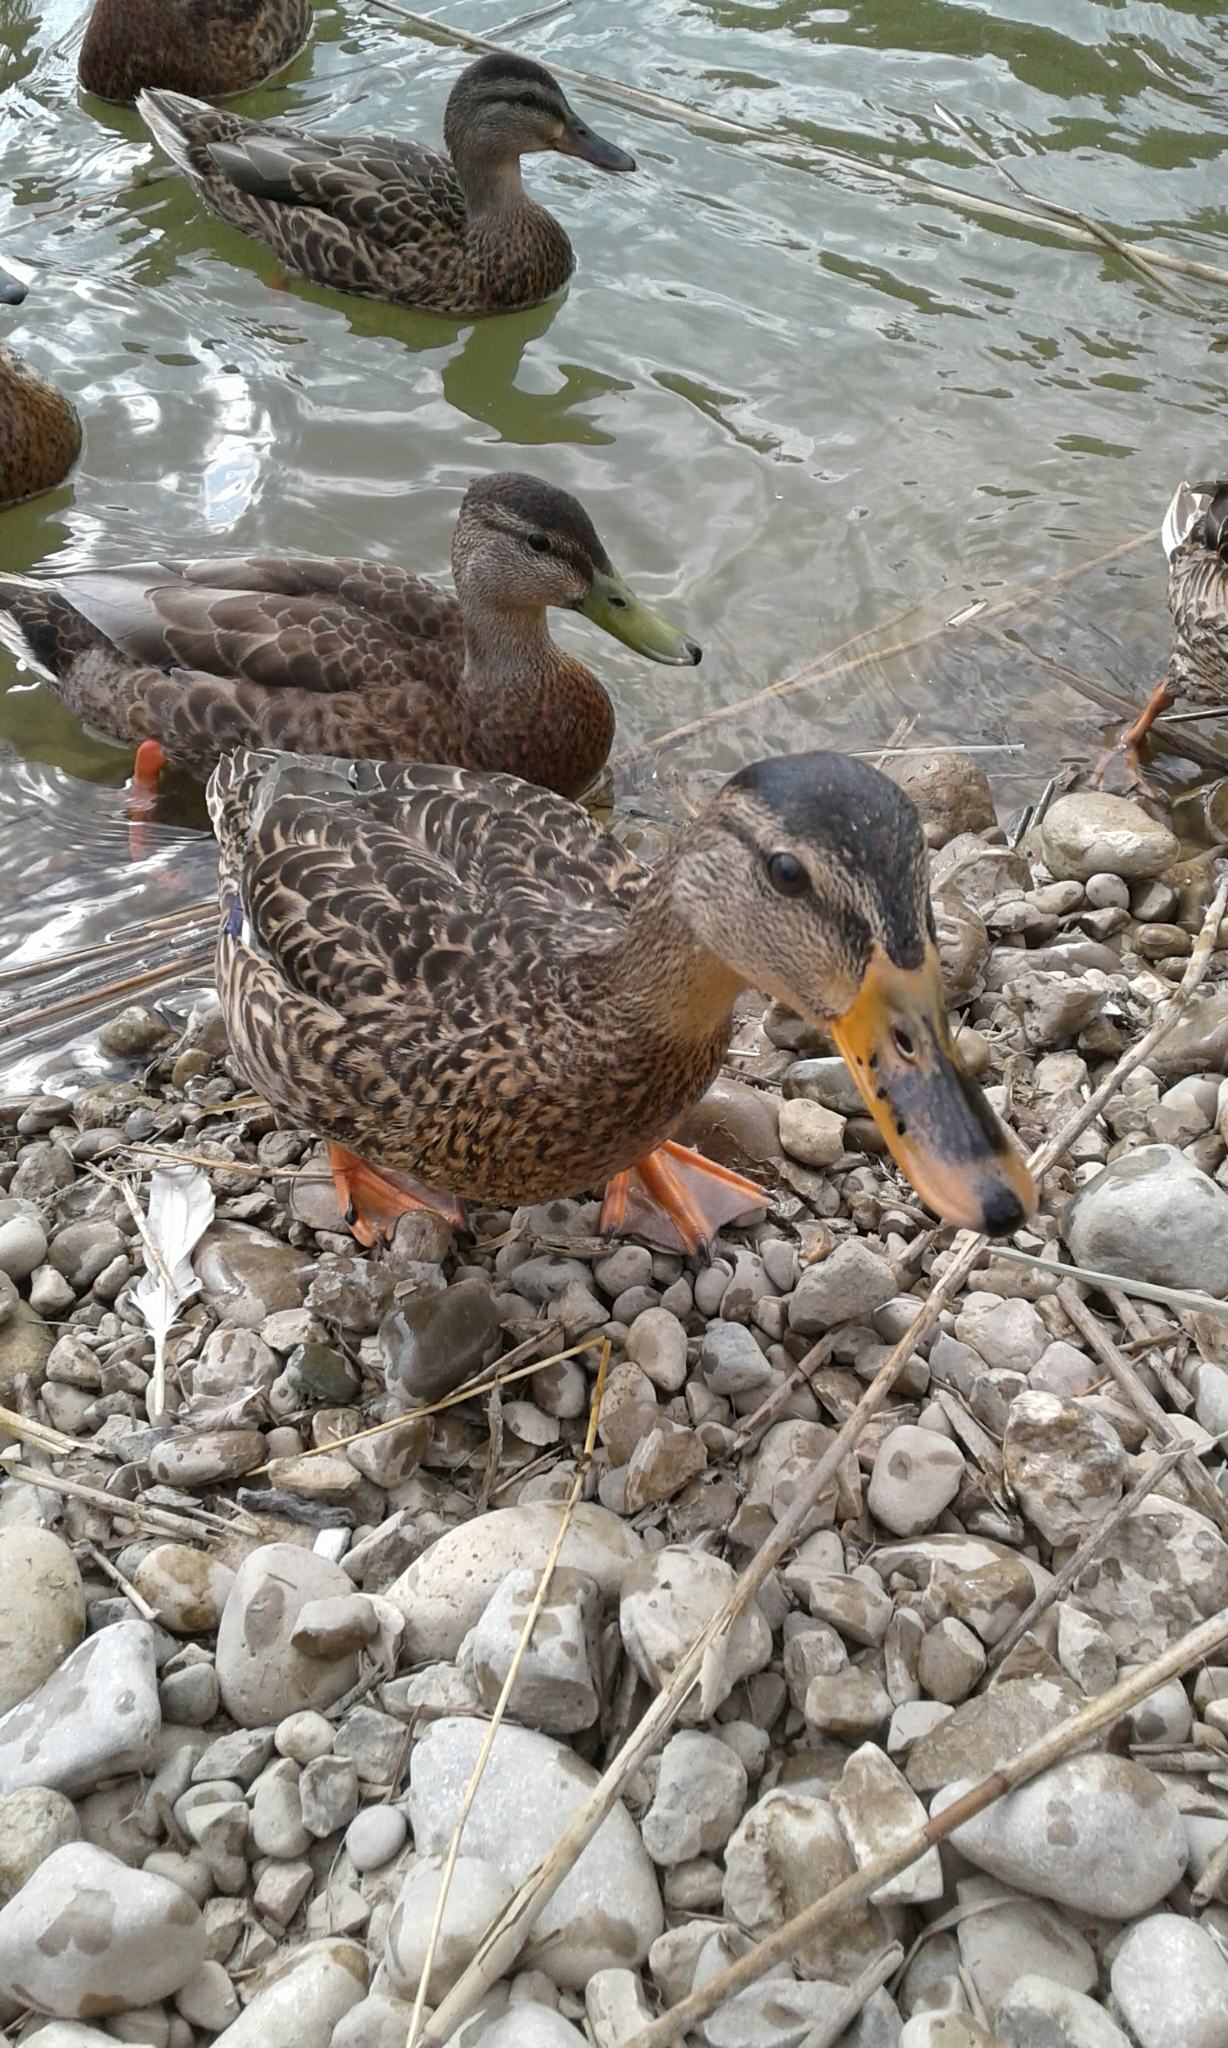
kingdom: Animalia
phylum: Chordata
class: Aves
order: Anseriformes
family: Anatidae
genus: Anas
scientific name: Anas platyrhynchos
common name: Mallard
